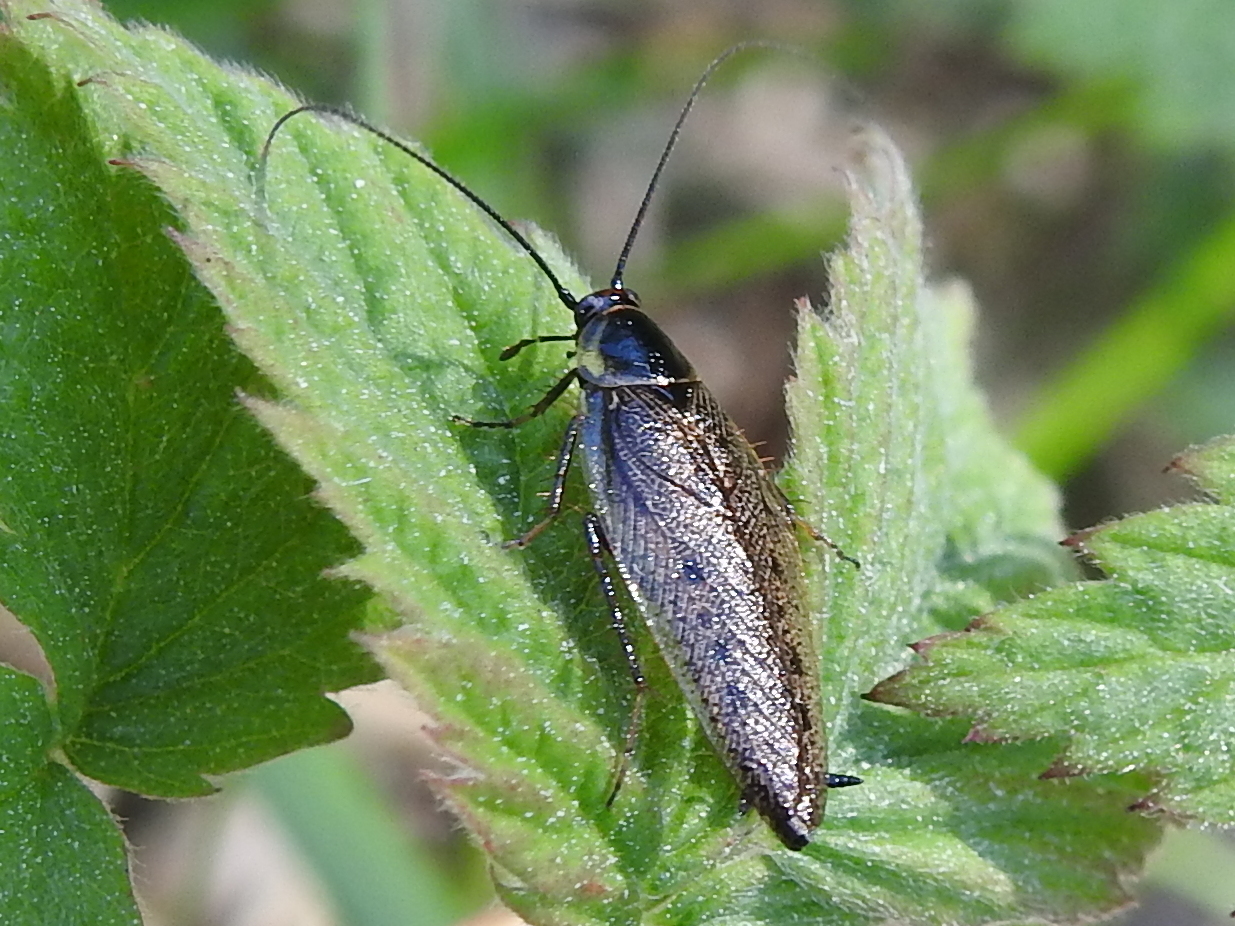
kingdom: Animalia
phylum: Arthropoda
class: Insecta
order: Blattodea
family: Ectobiidae
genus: Ectobius
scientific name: Ectobius lapponicus
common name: Dusky cockroach
